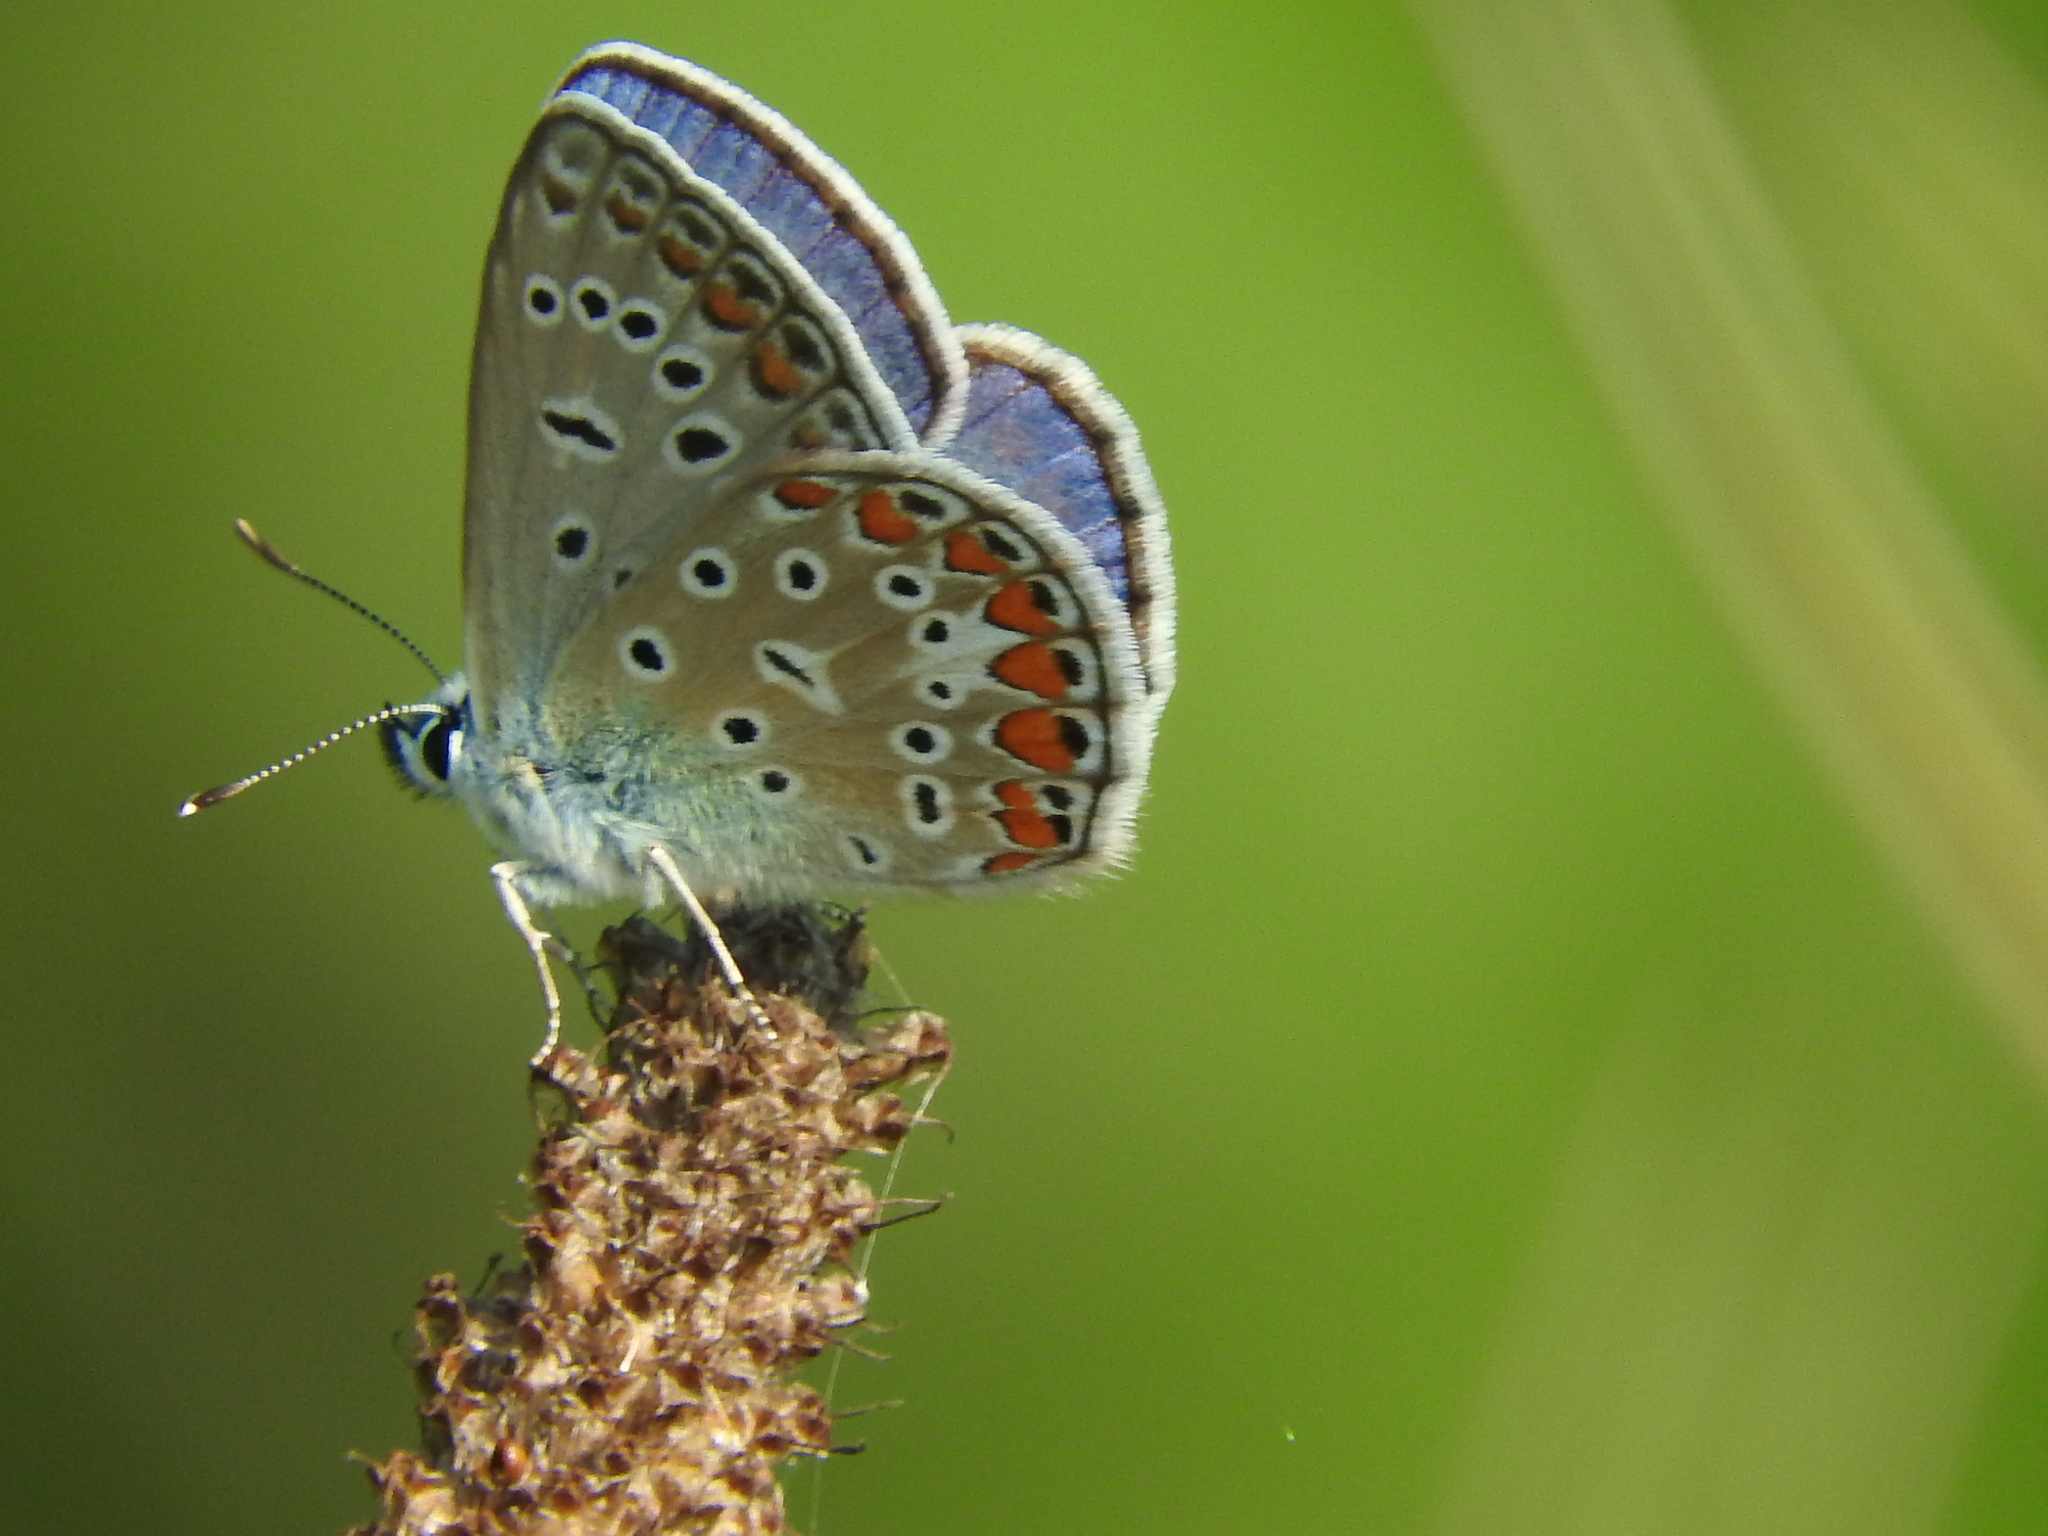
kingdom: Animalia
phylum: Arthropoda
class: Insecta
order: Lepidoptera
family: Lycaenidae
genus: Polyommatus
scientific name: Polyommatus icarus
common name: Common blue
